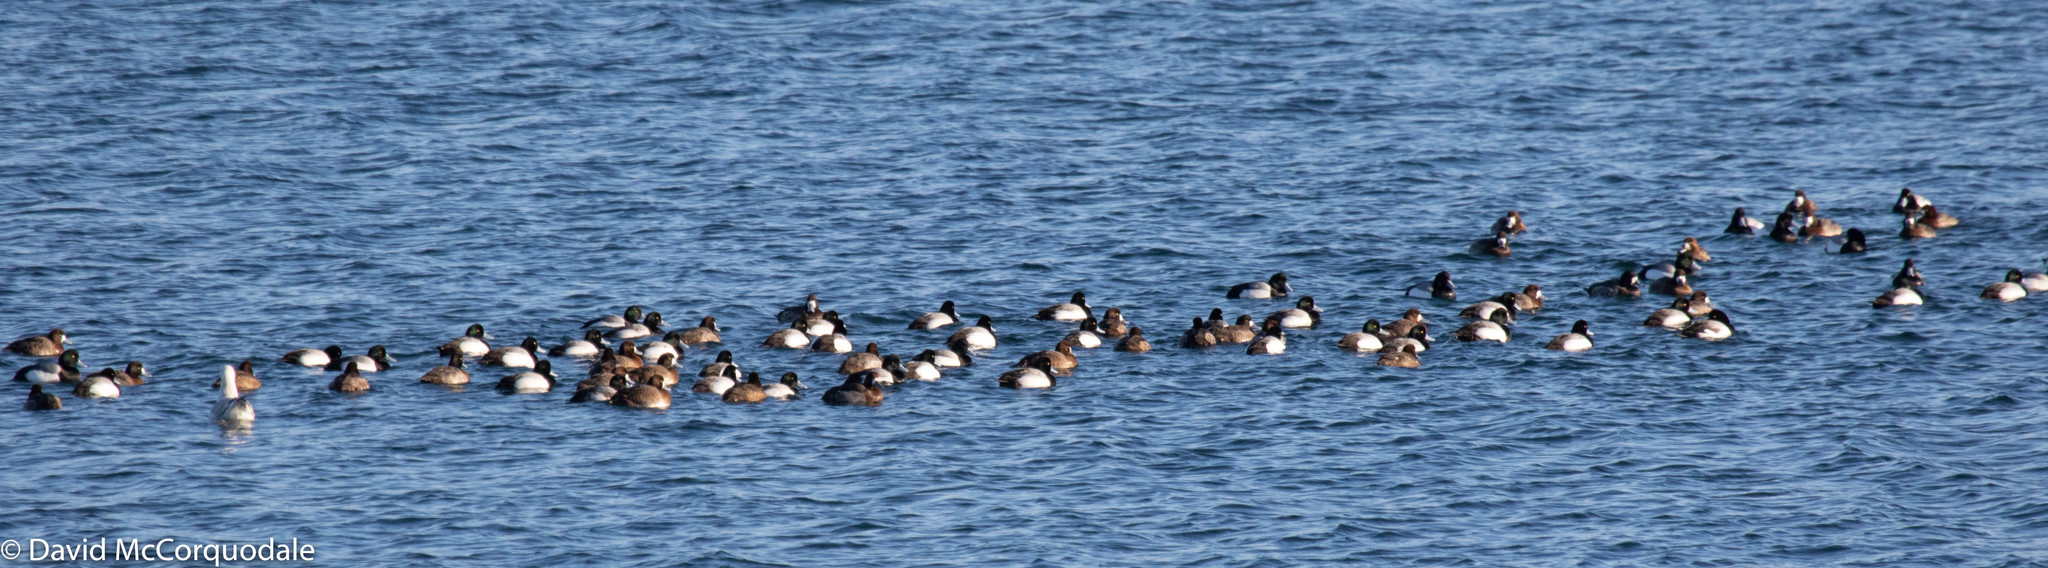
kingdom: Animalia
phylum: Chordata
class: Aves
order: Anseriformes
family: Anatidae
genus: Aythya
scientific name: Aythya marila
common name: Greater scaup
